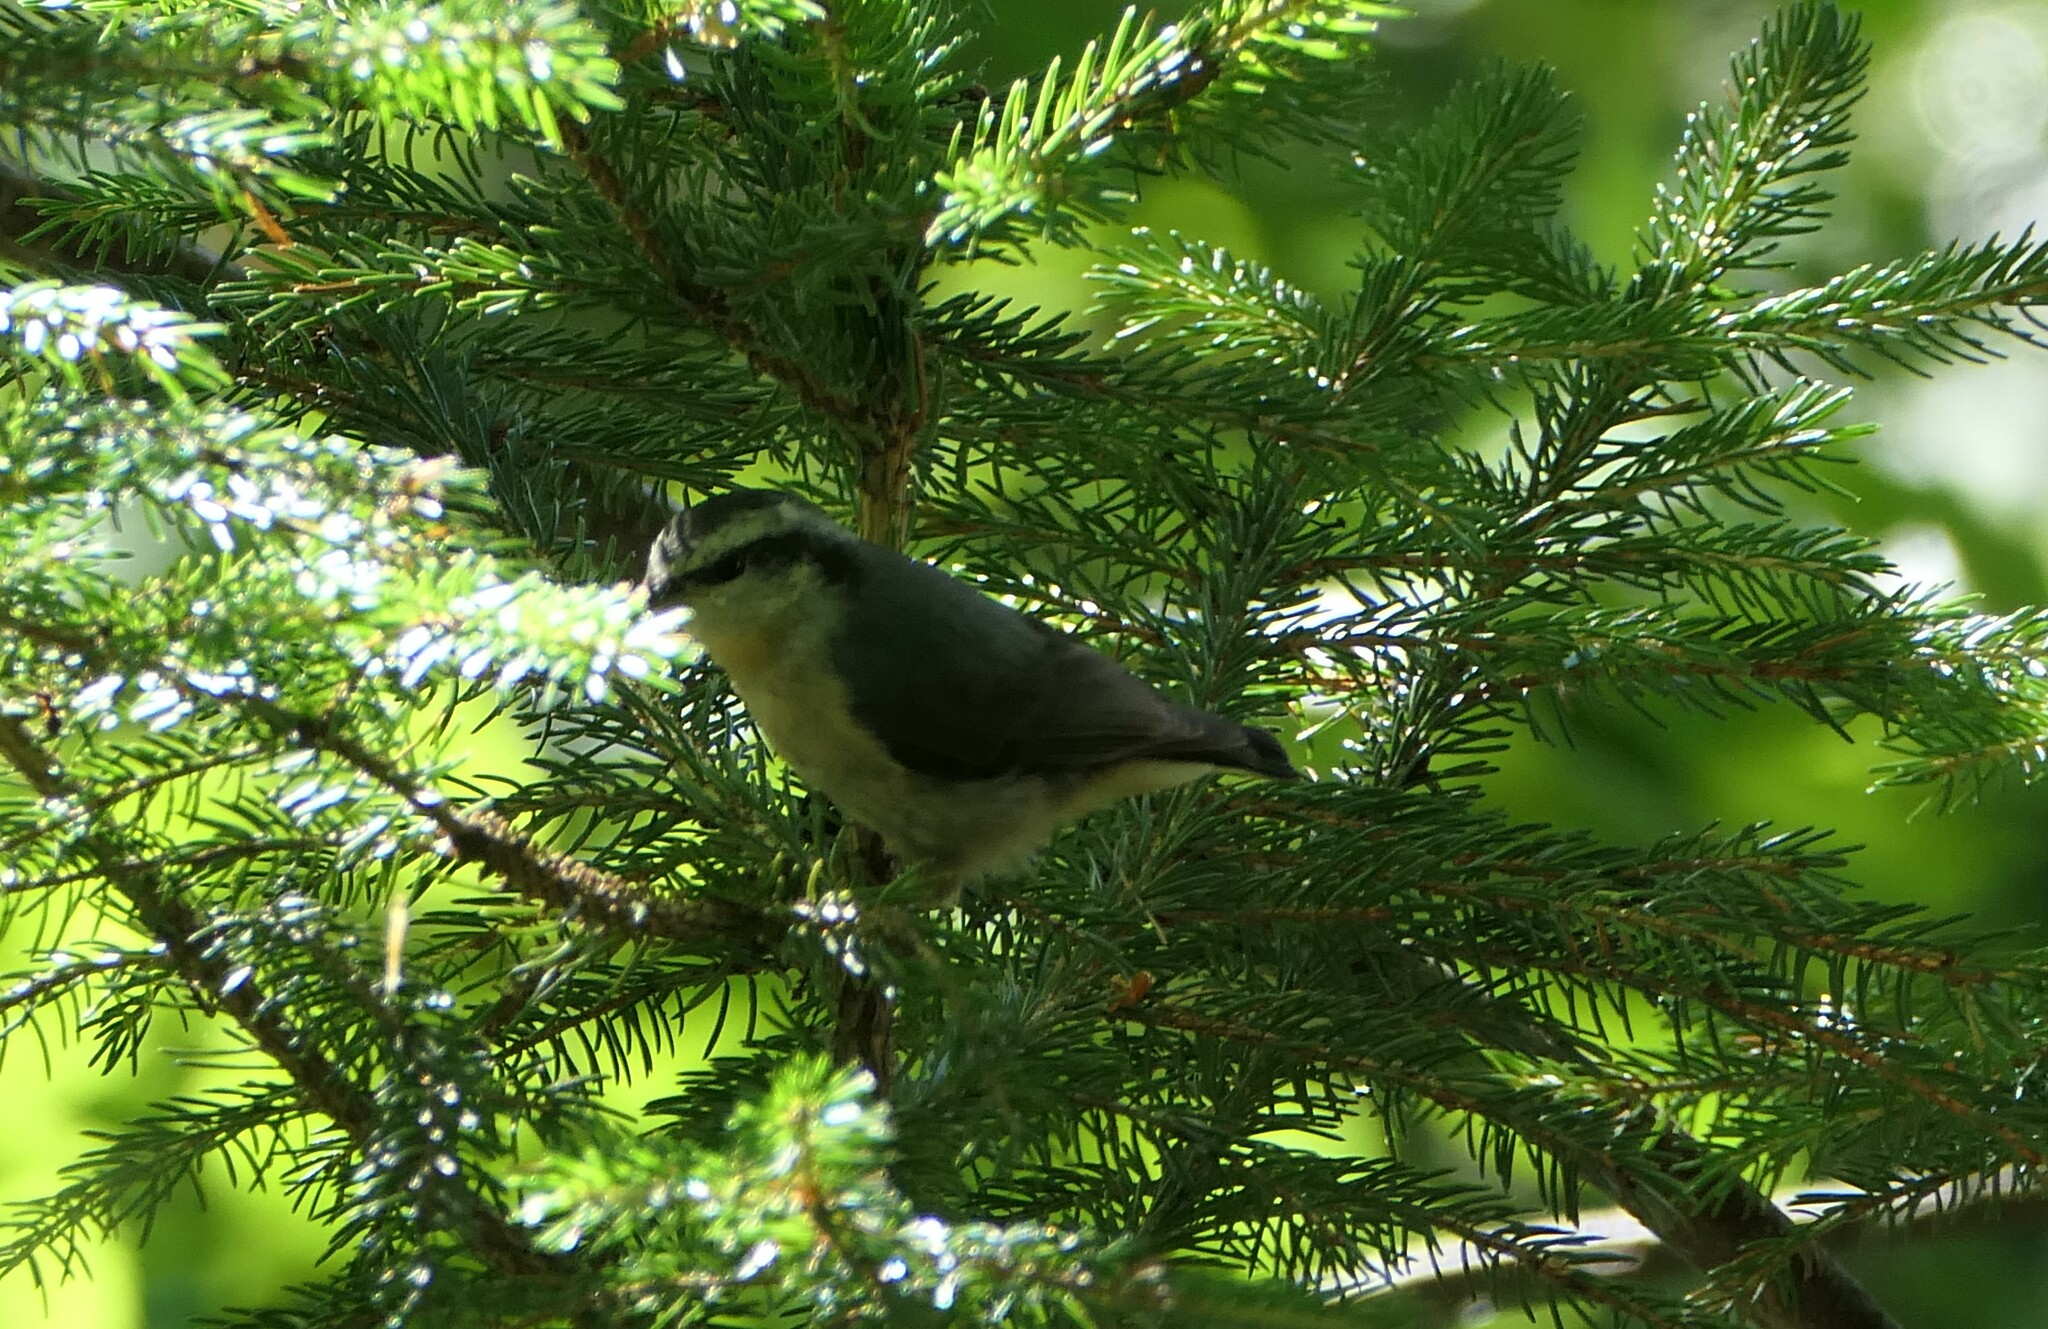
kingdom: Animalia
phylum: Chordata
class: Aves
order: Passeriformes
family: Sittidae
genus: Sitta
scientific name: Sitta canadensis
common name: Red-breasted nuthatch
